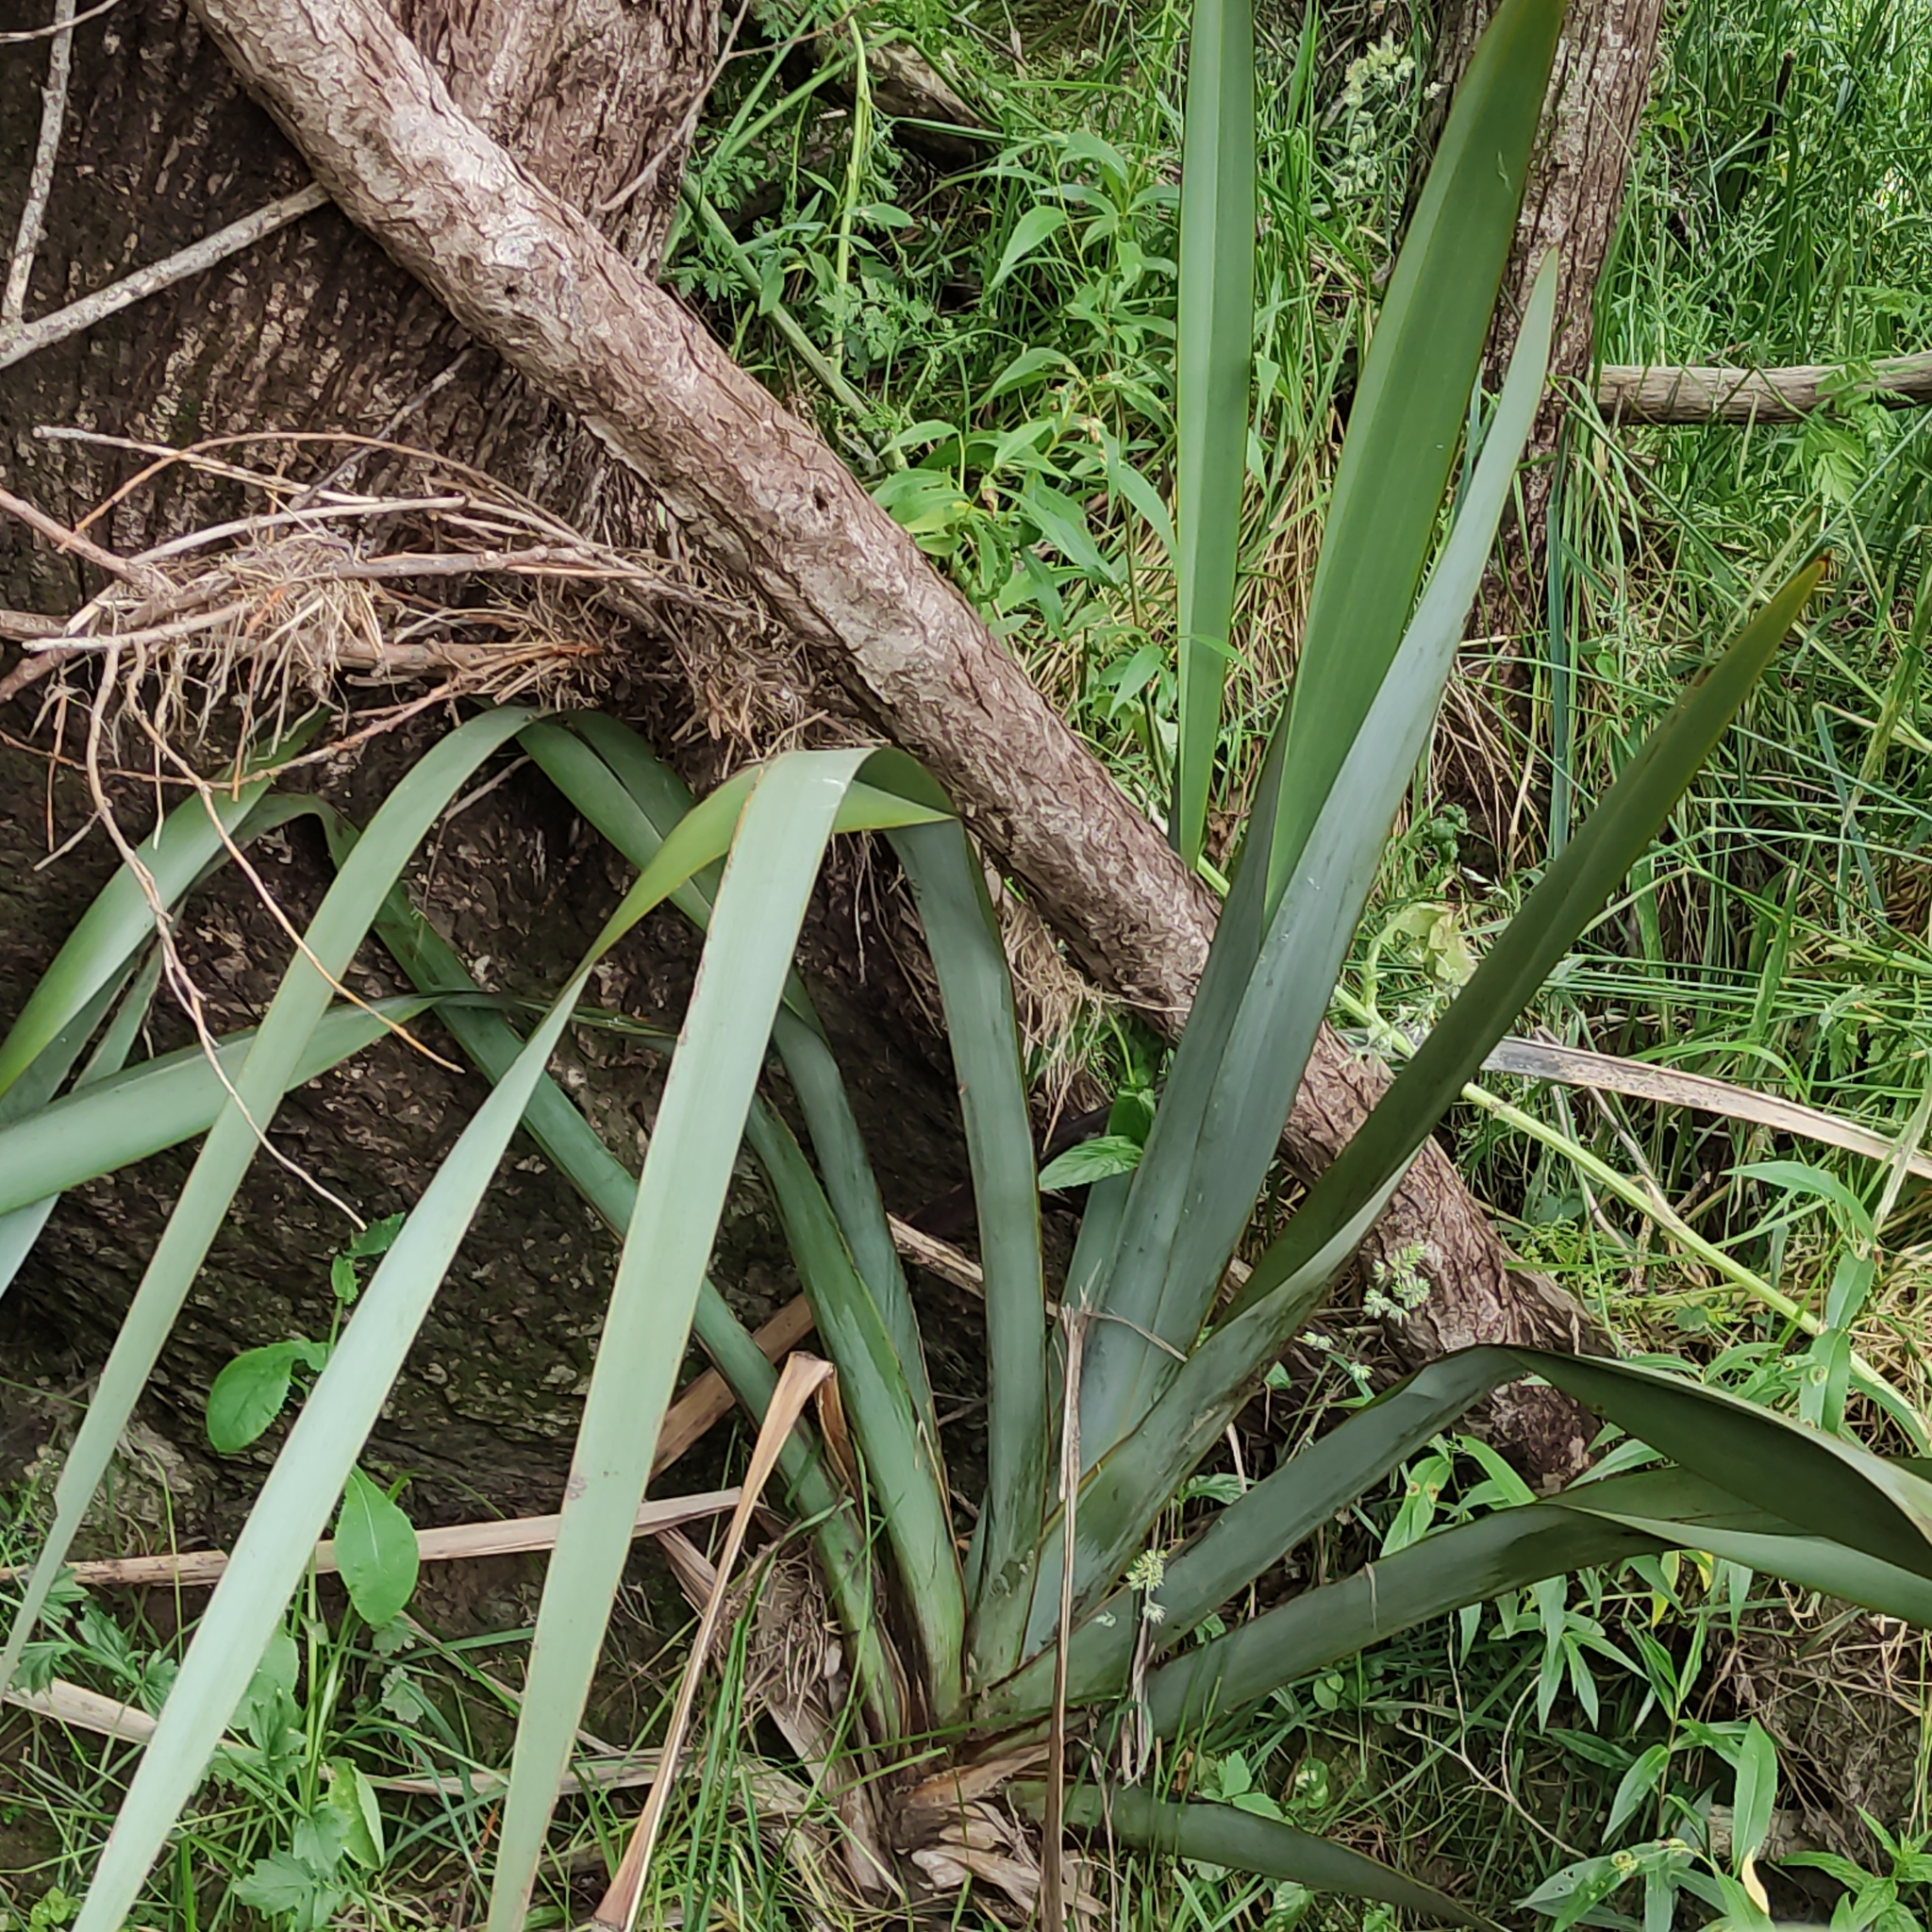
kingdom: Plantae
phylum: Tracheophyta
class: Liliopsida
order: Asparagales
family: Asphodelaceae
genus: Phormium
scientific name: Phormium tenax
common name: New zealand flax
